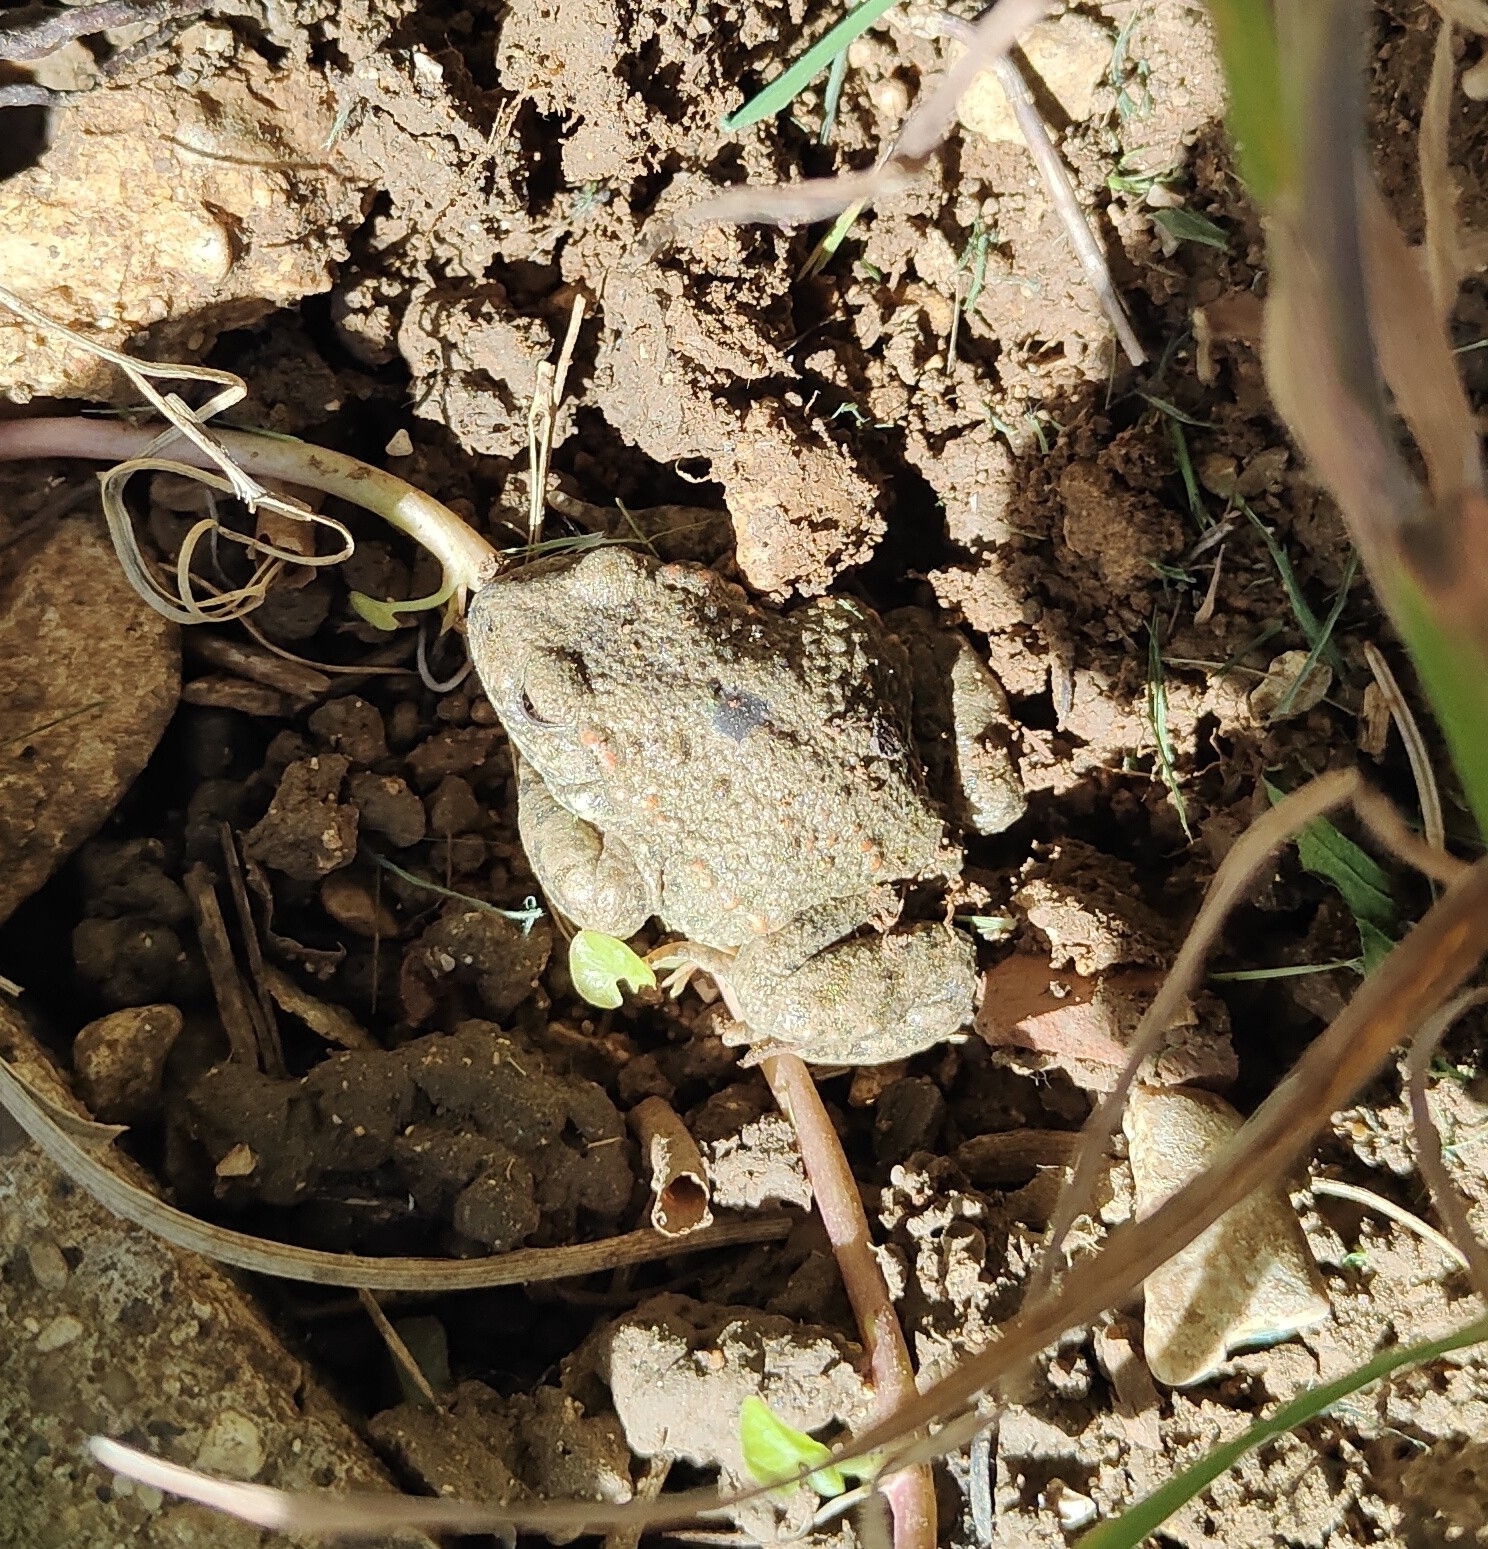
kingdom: Animalia
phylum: Chordata
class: Amphibia
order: Anura
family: Alytidae
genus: Alytes
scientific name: Alytes obstetricans
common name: Midwife toad
